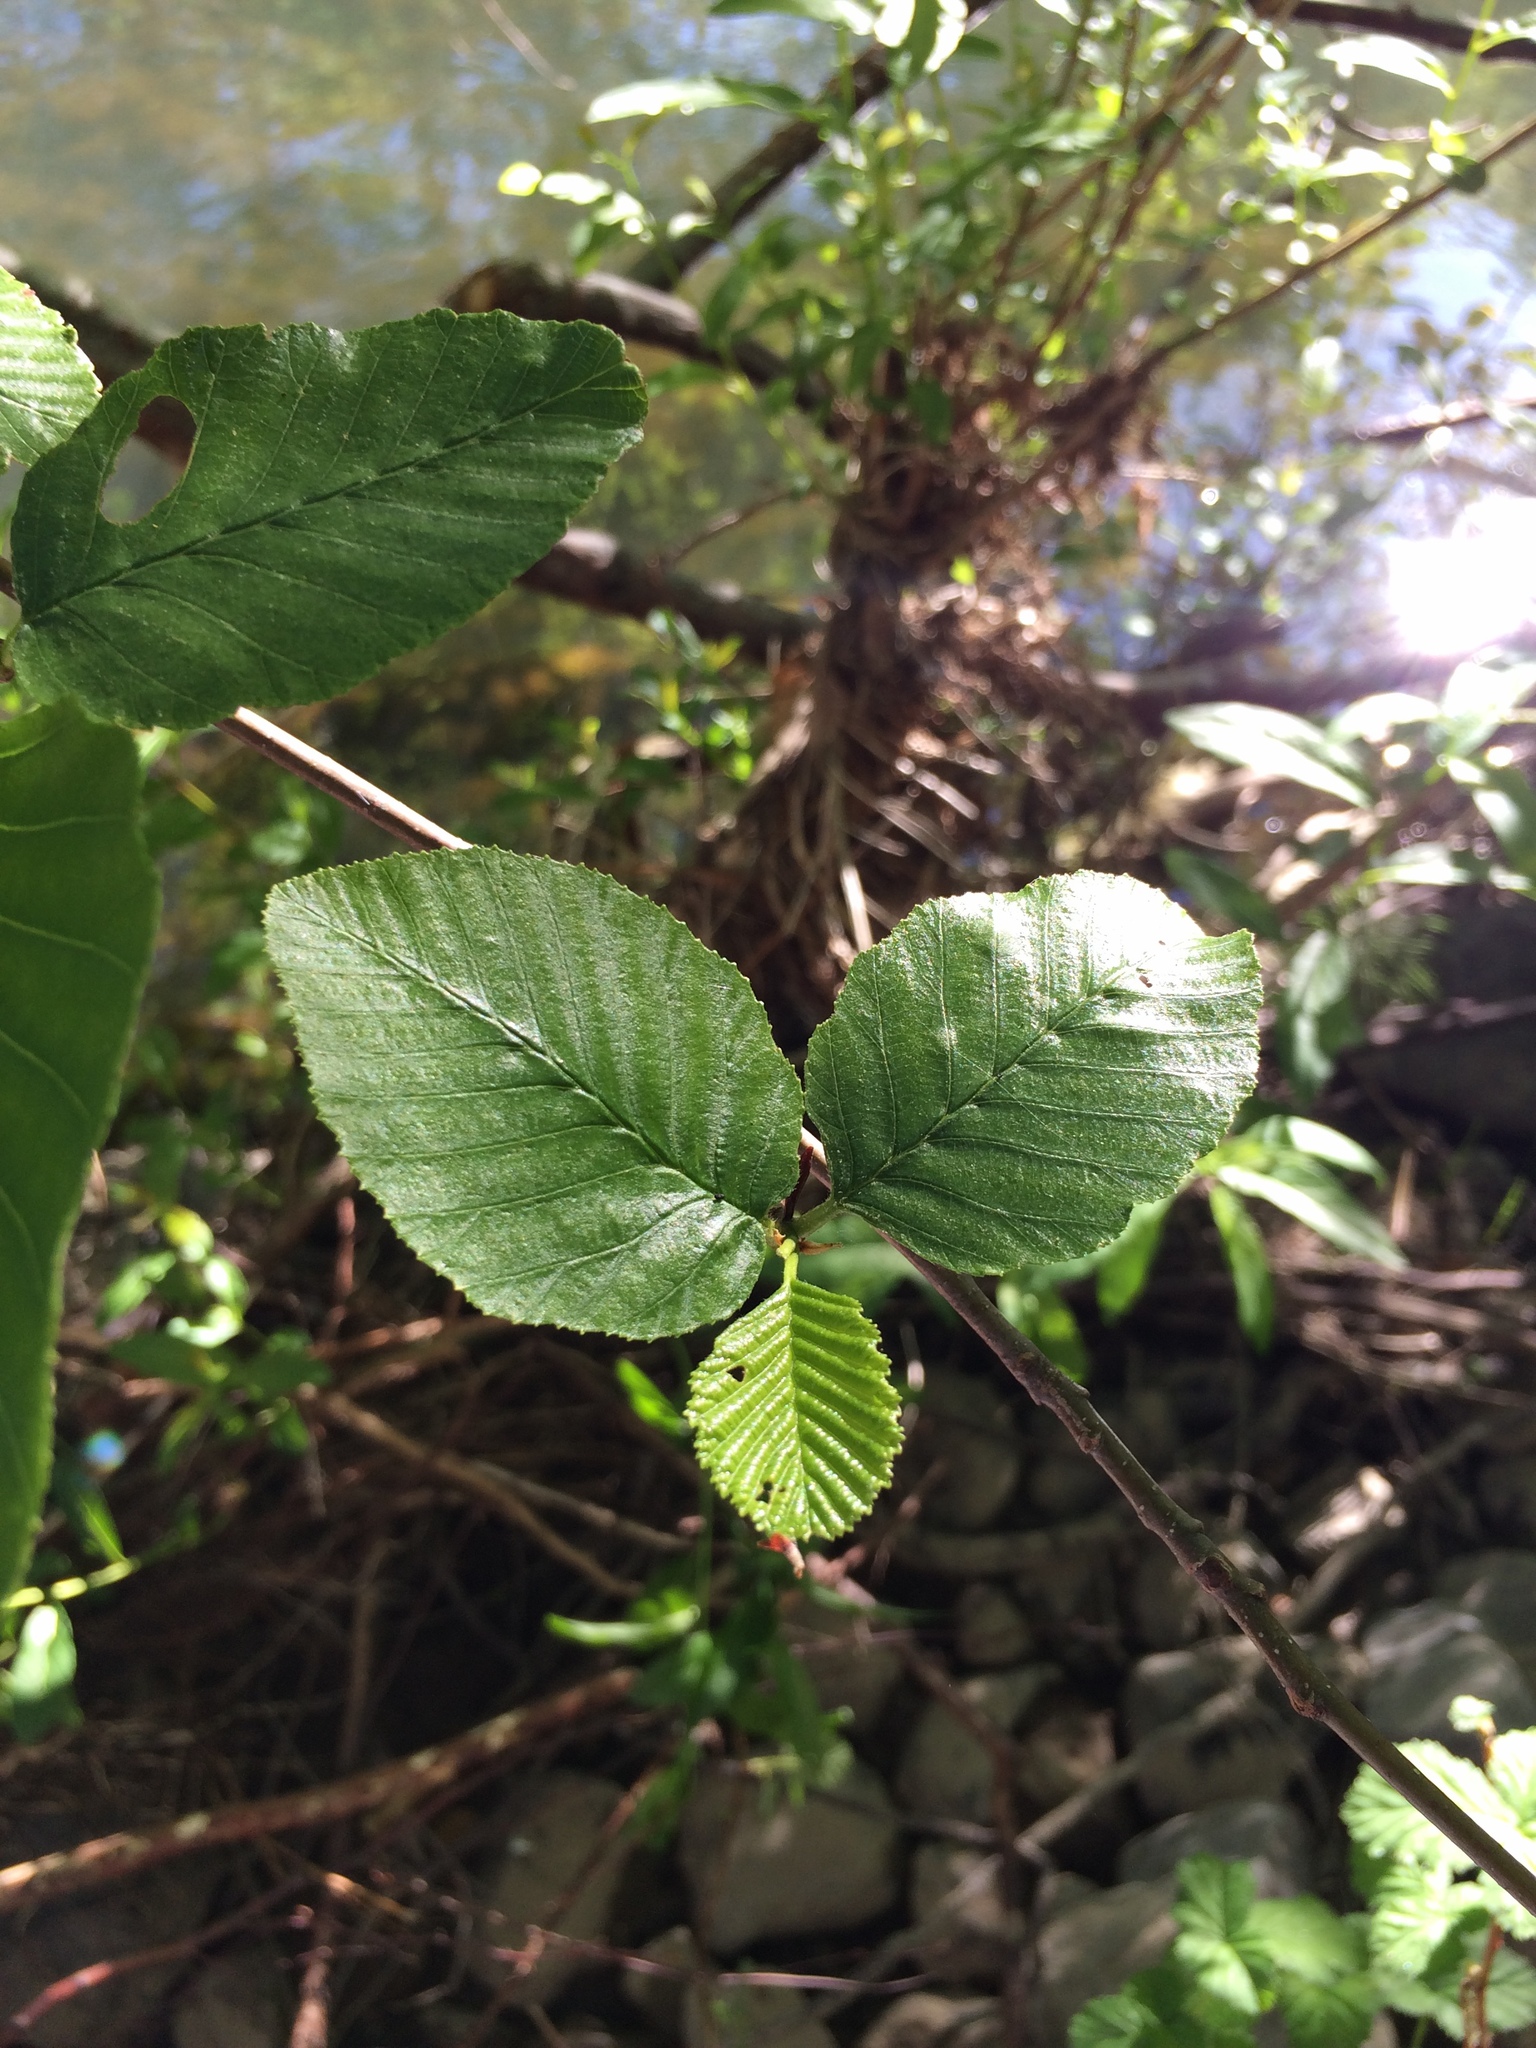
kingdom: Plantae
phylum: Tracheophyta
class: Magnoliopsida
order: Fagales
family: Betulaceae
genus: Alnus
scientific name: Alnus rhombifolia
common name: California alder
